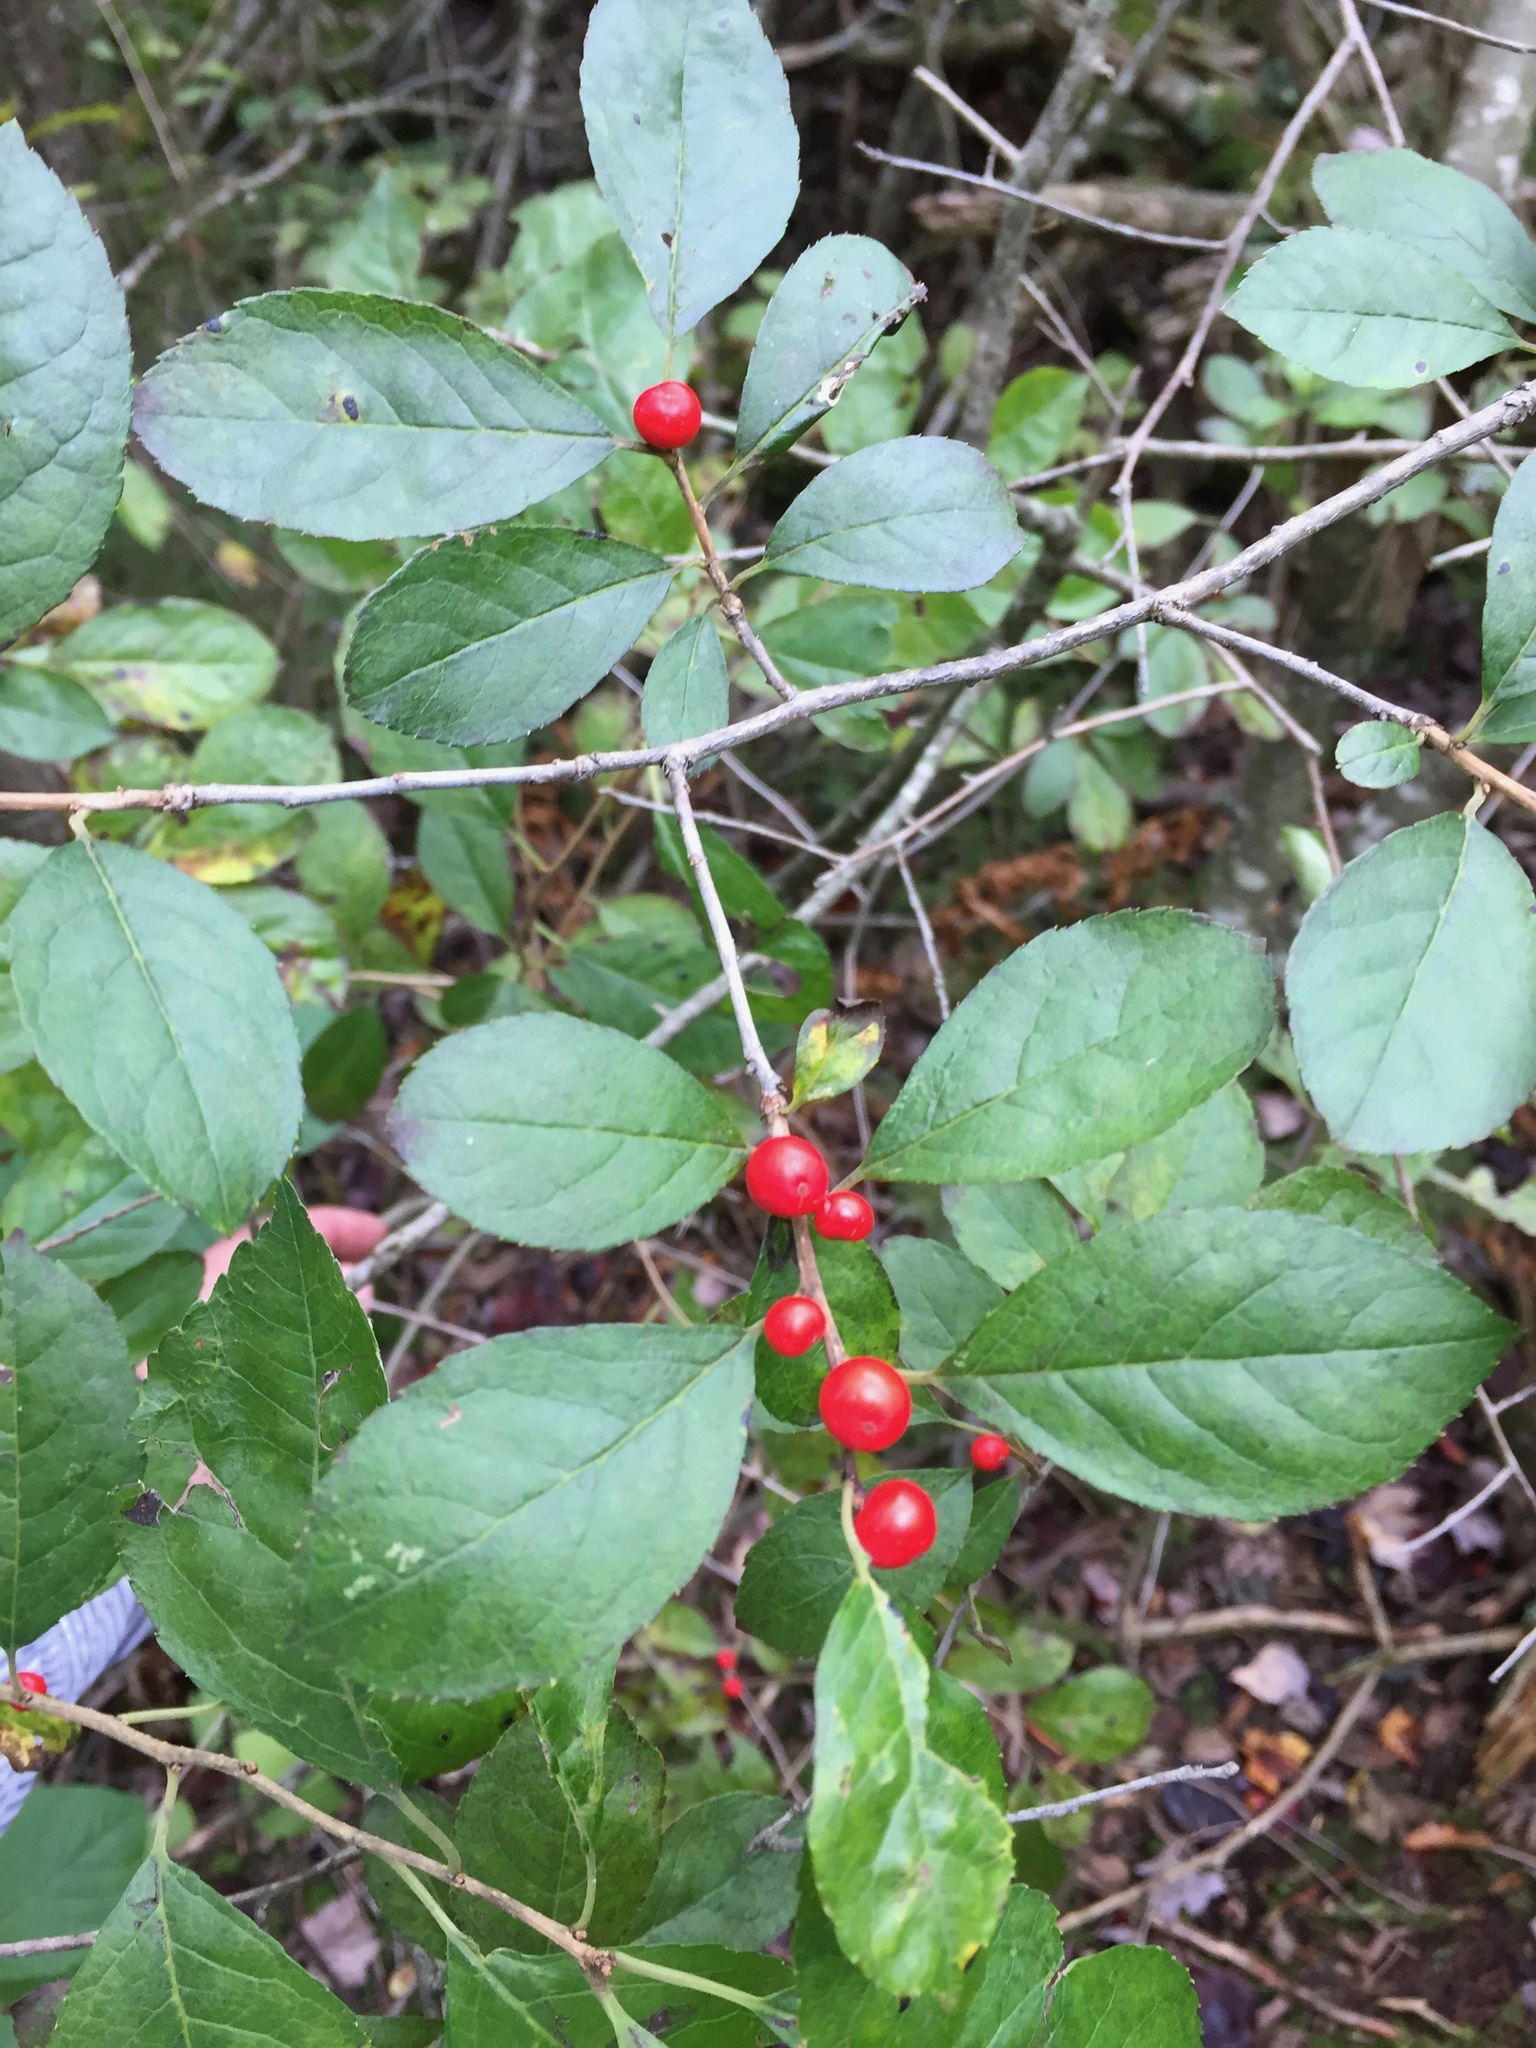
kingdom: Plantae
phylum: Tracheophyta
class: Magnoliopsida
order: Aquifoliales
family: Aquifoliaceae
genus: Ilex
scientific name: Ilex verticillata
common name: Virginia winterberry
